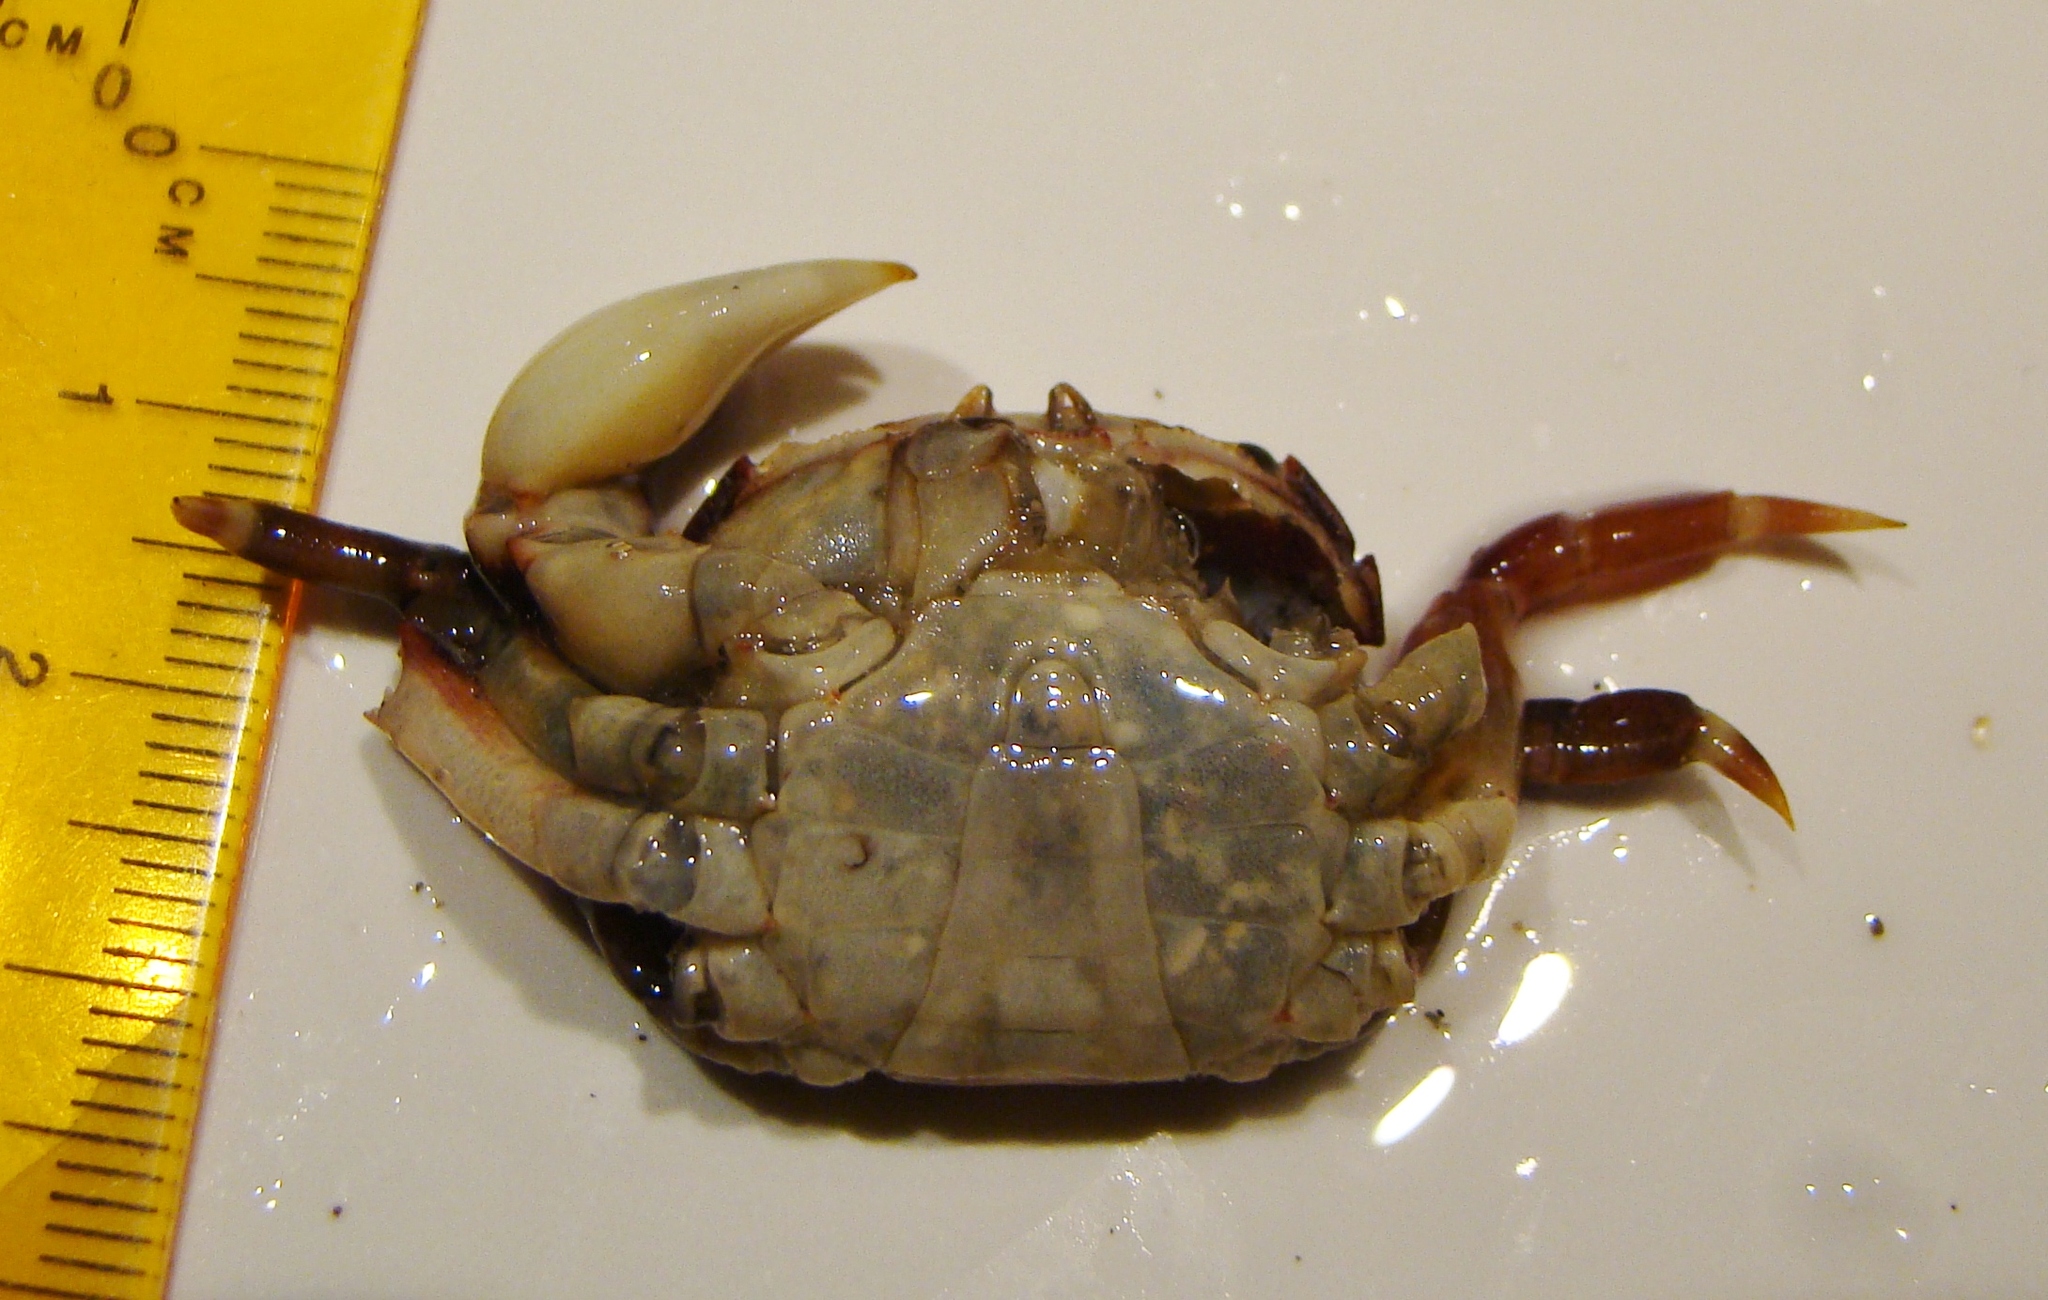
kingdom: Animalia
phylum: Arthropoda
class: Malacostraca
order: Decapoda
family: Varunidae
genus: Hemigrapsus
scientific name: Hemigrapsus sexdentatus
